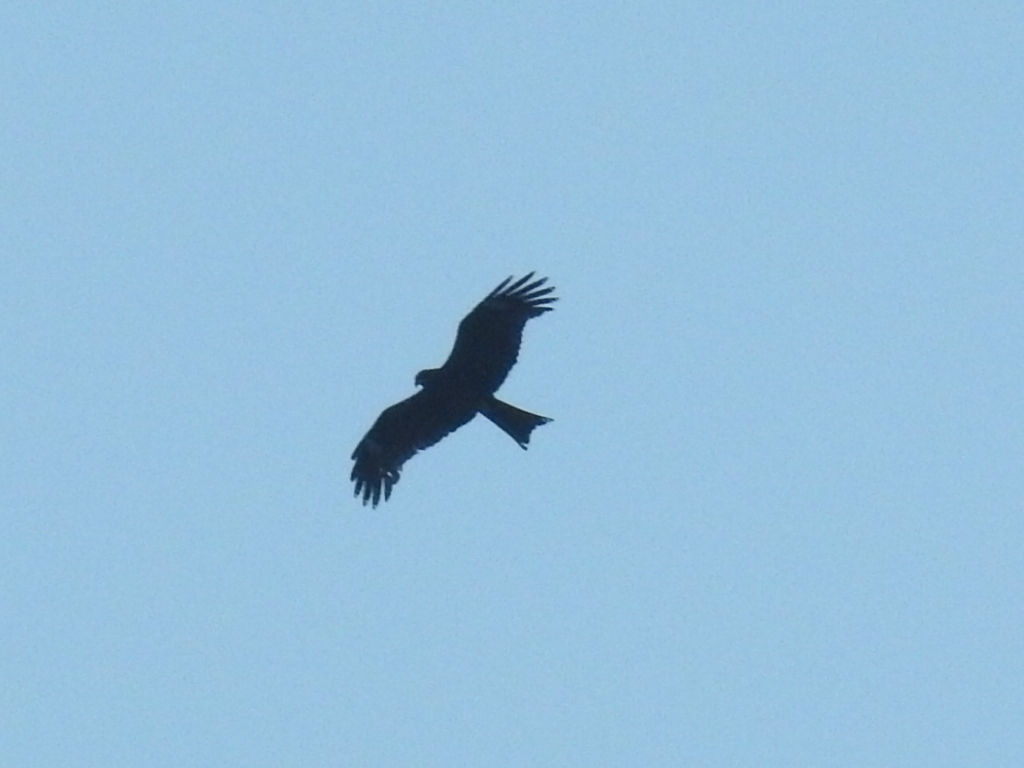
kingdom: Animalia
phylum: Chordata
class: Aves
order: Accipitriformes
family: Accipitridae
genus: Milvus
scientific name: Milvus migrans
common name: Black kite
